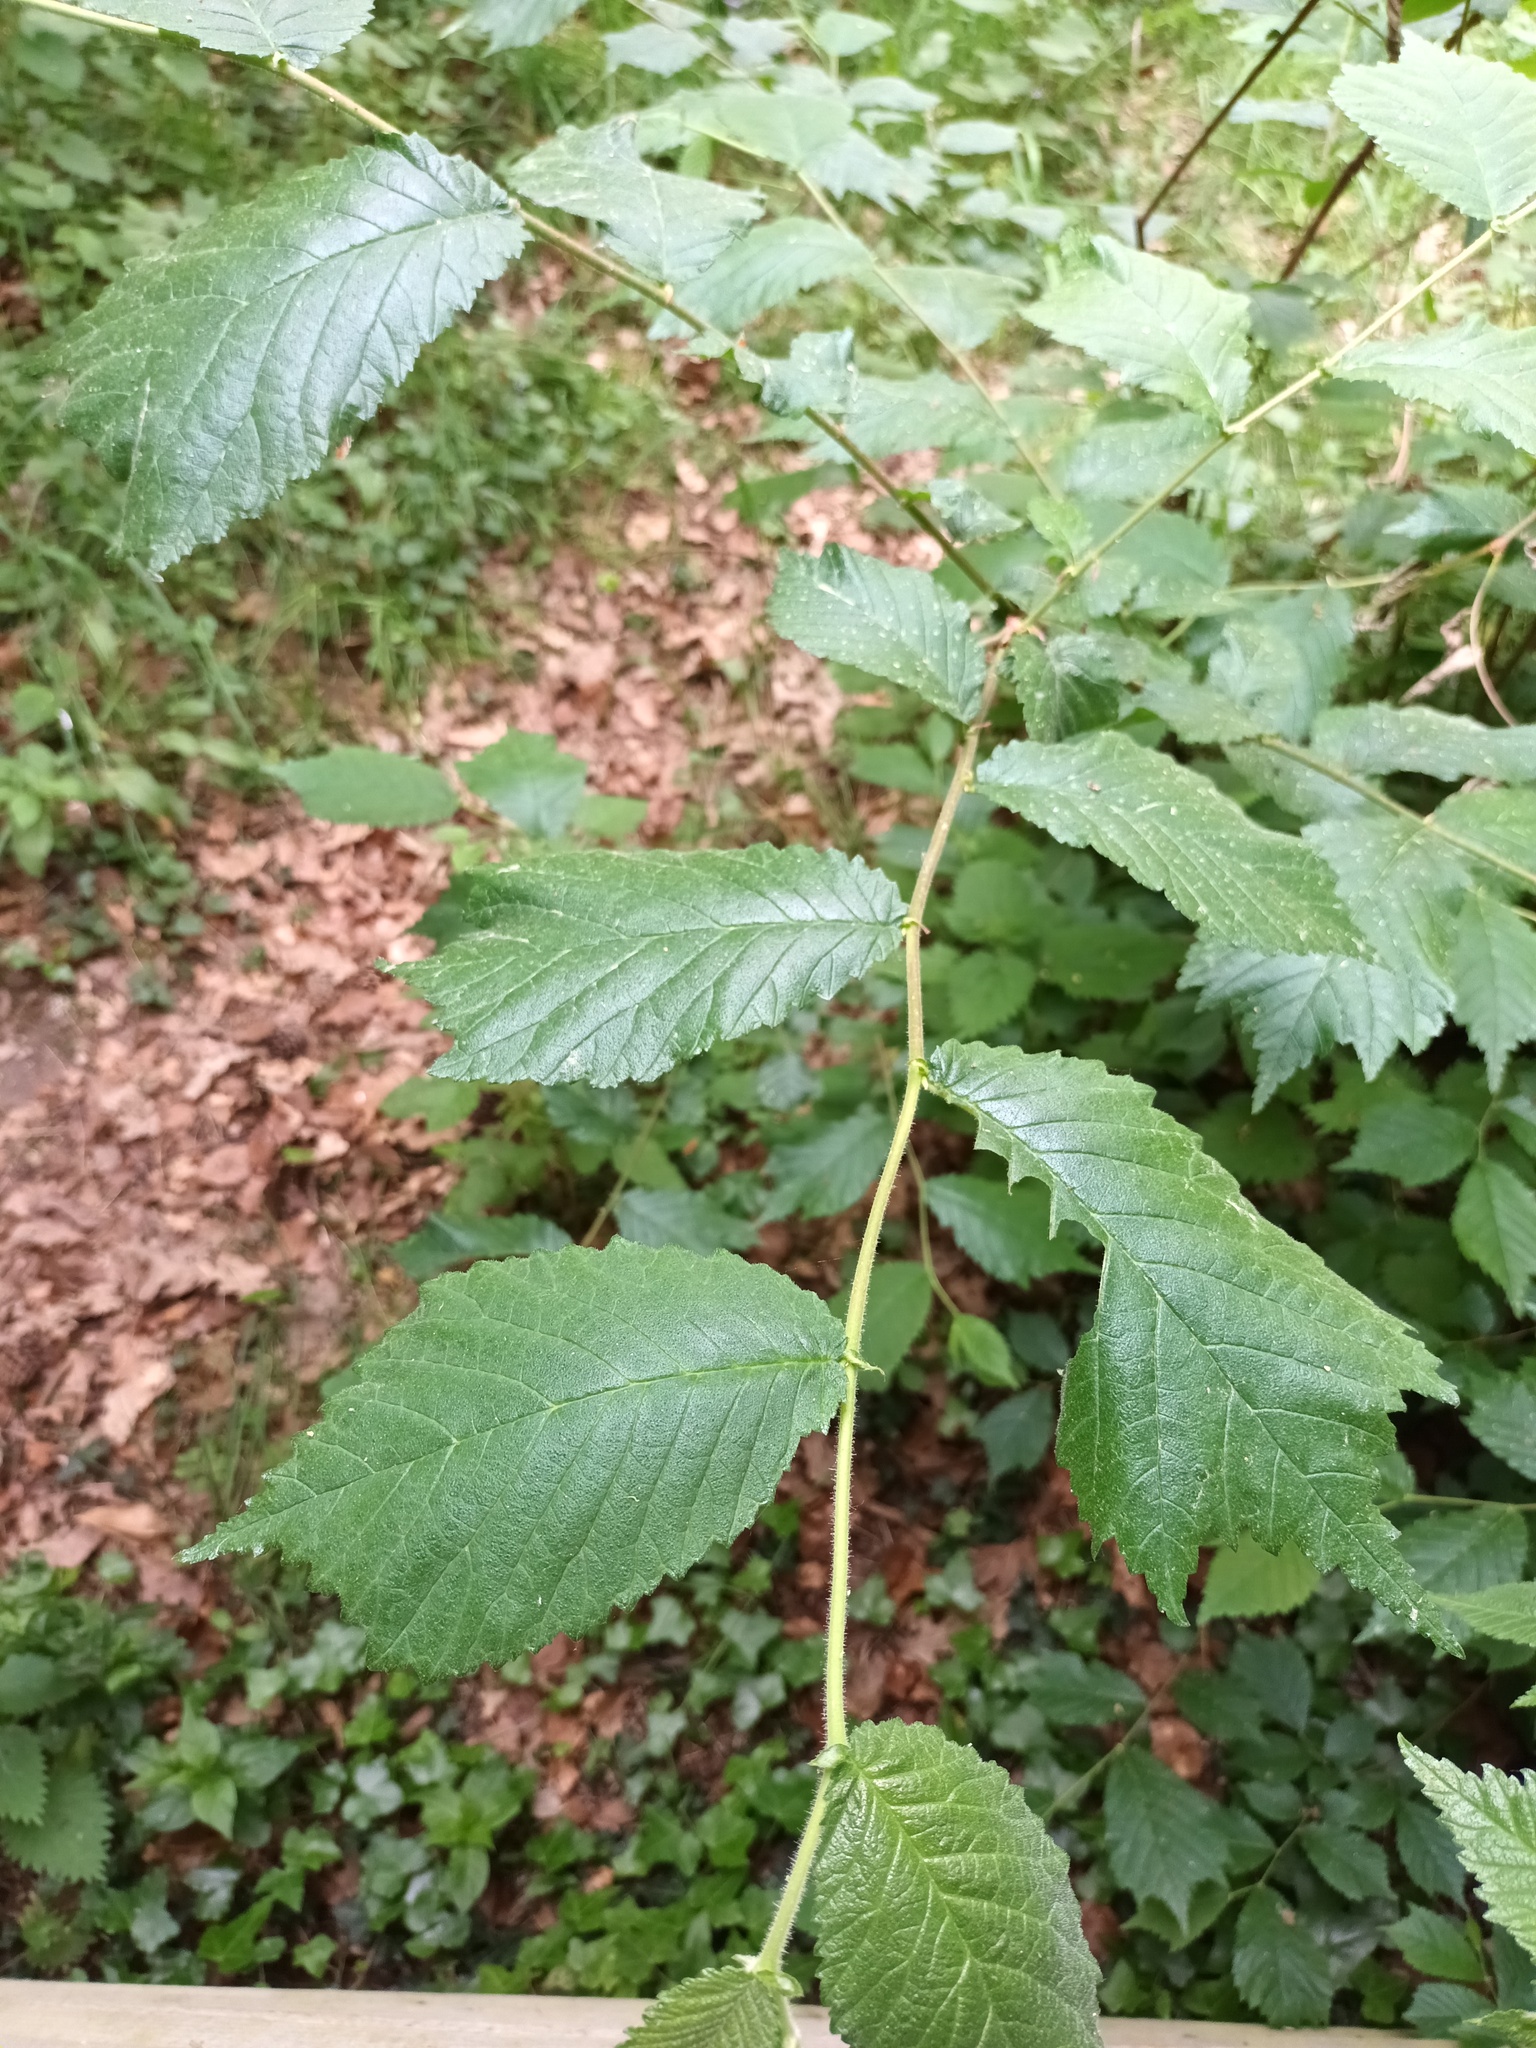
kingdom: Plantae
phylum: Tracheophyta
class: Magnoliopsida
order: Rosales
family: Ulmaceae
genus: Ulmus
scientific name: Ulmus glabra
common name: Wych elm
